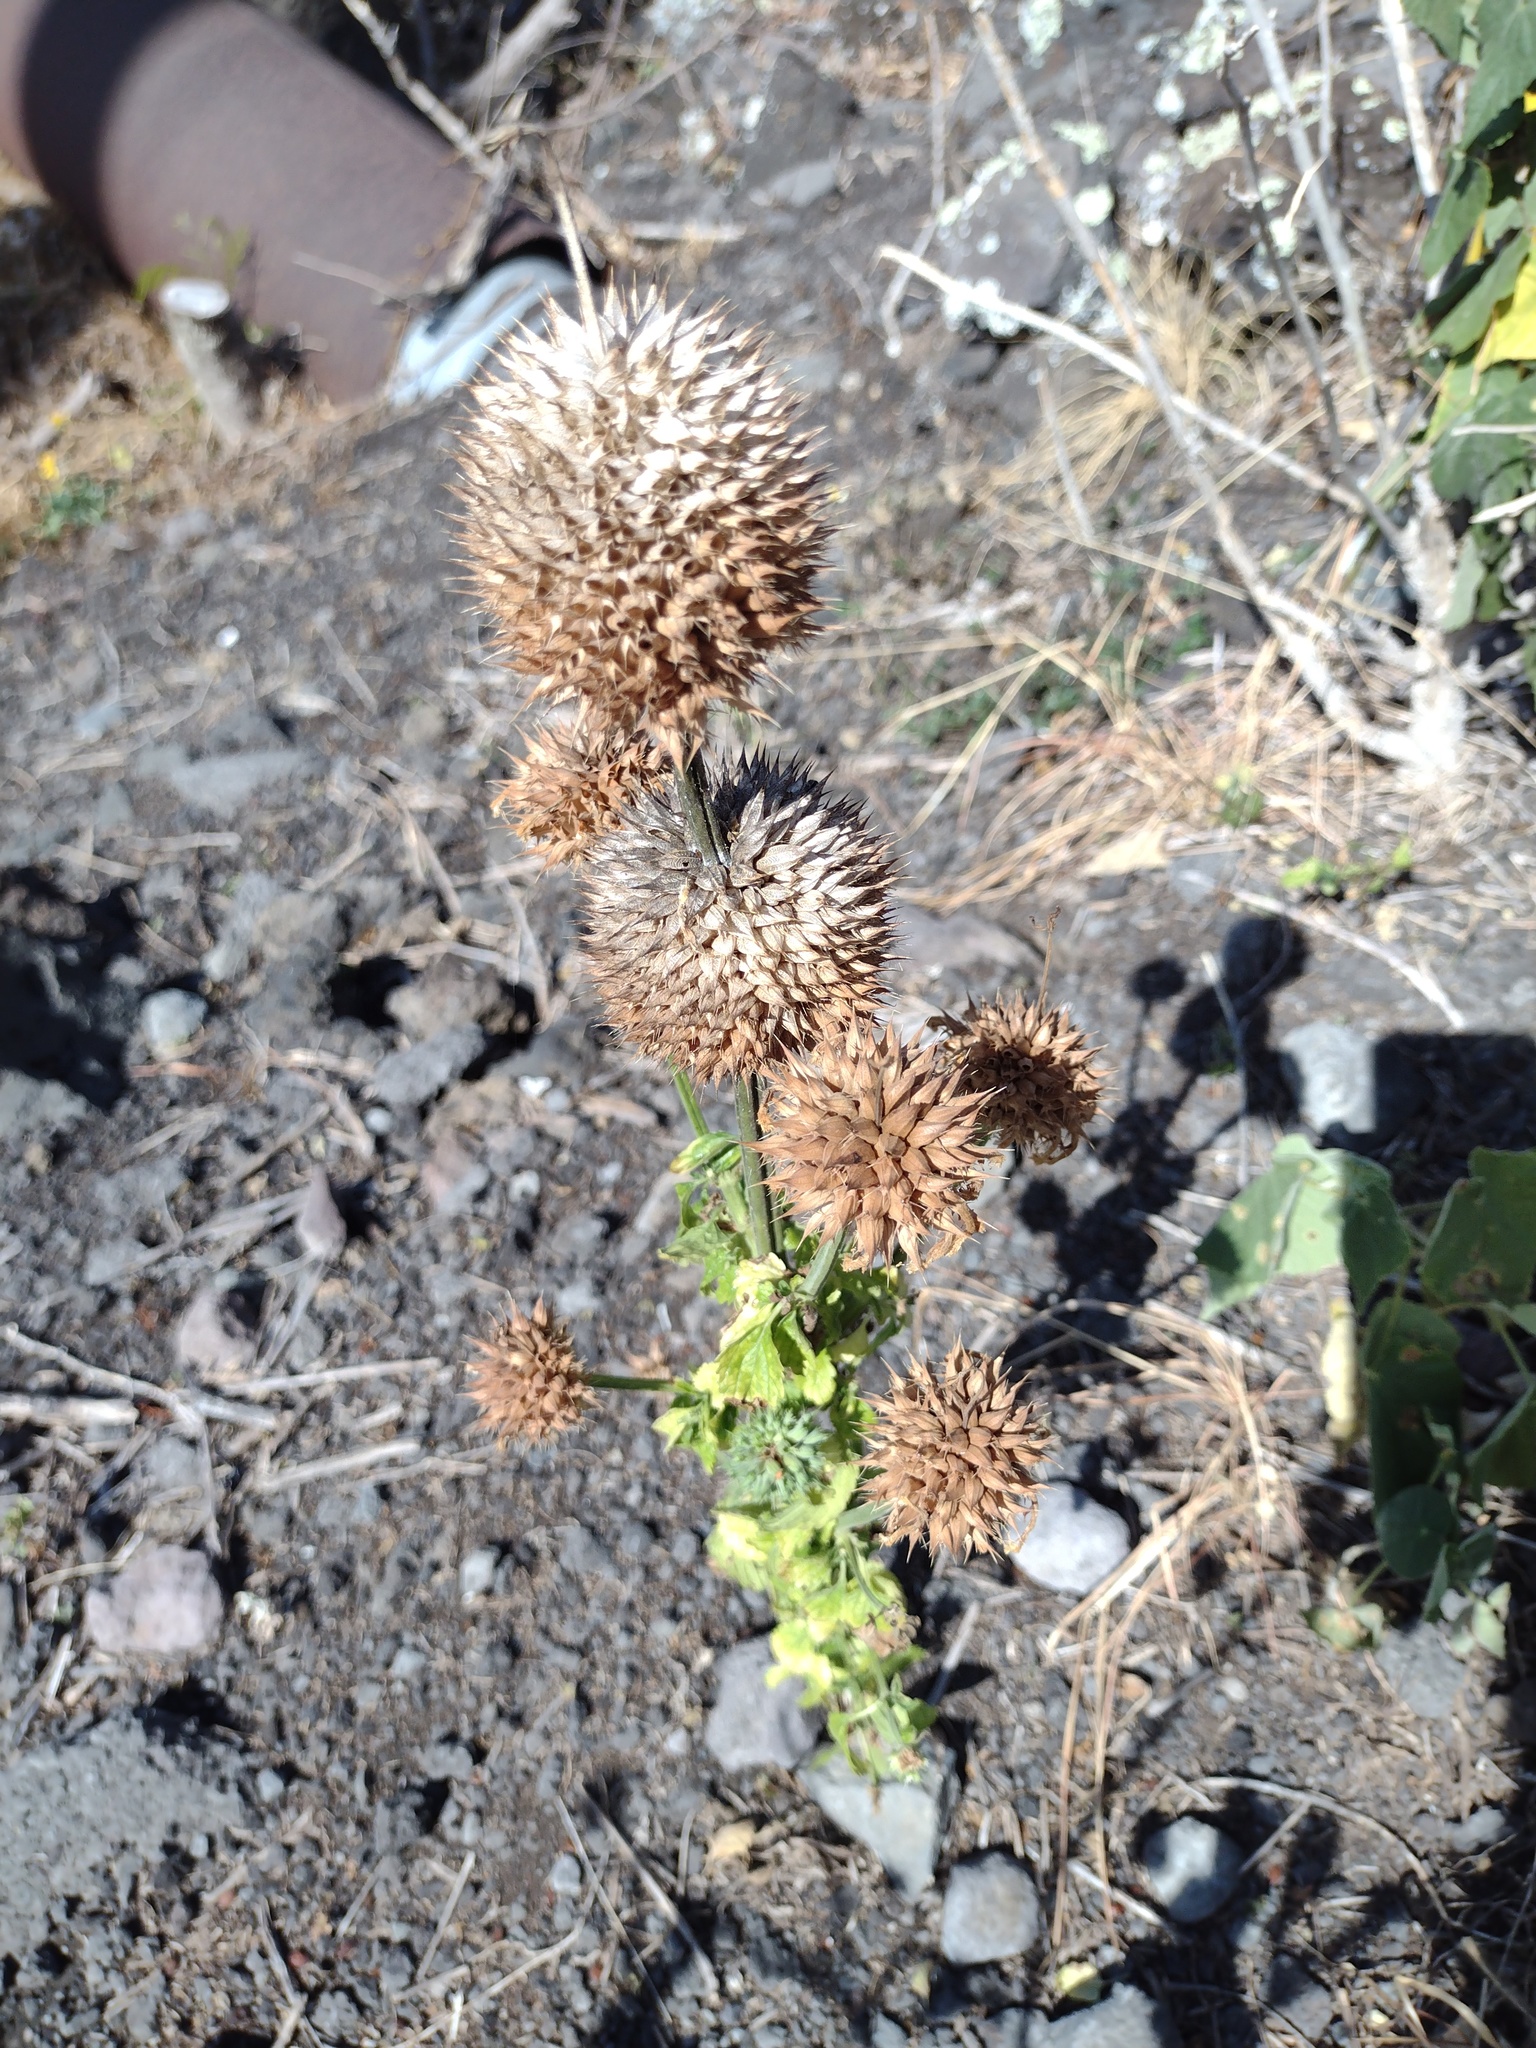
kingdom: Plantae
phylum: Tracheophyta
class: Magnoliopsida
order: Lamiales
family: Lamiaceae
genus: Leonotis
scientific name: Leonotis nepetifolia
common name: Christmas candlestick
